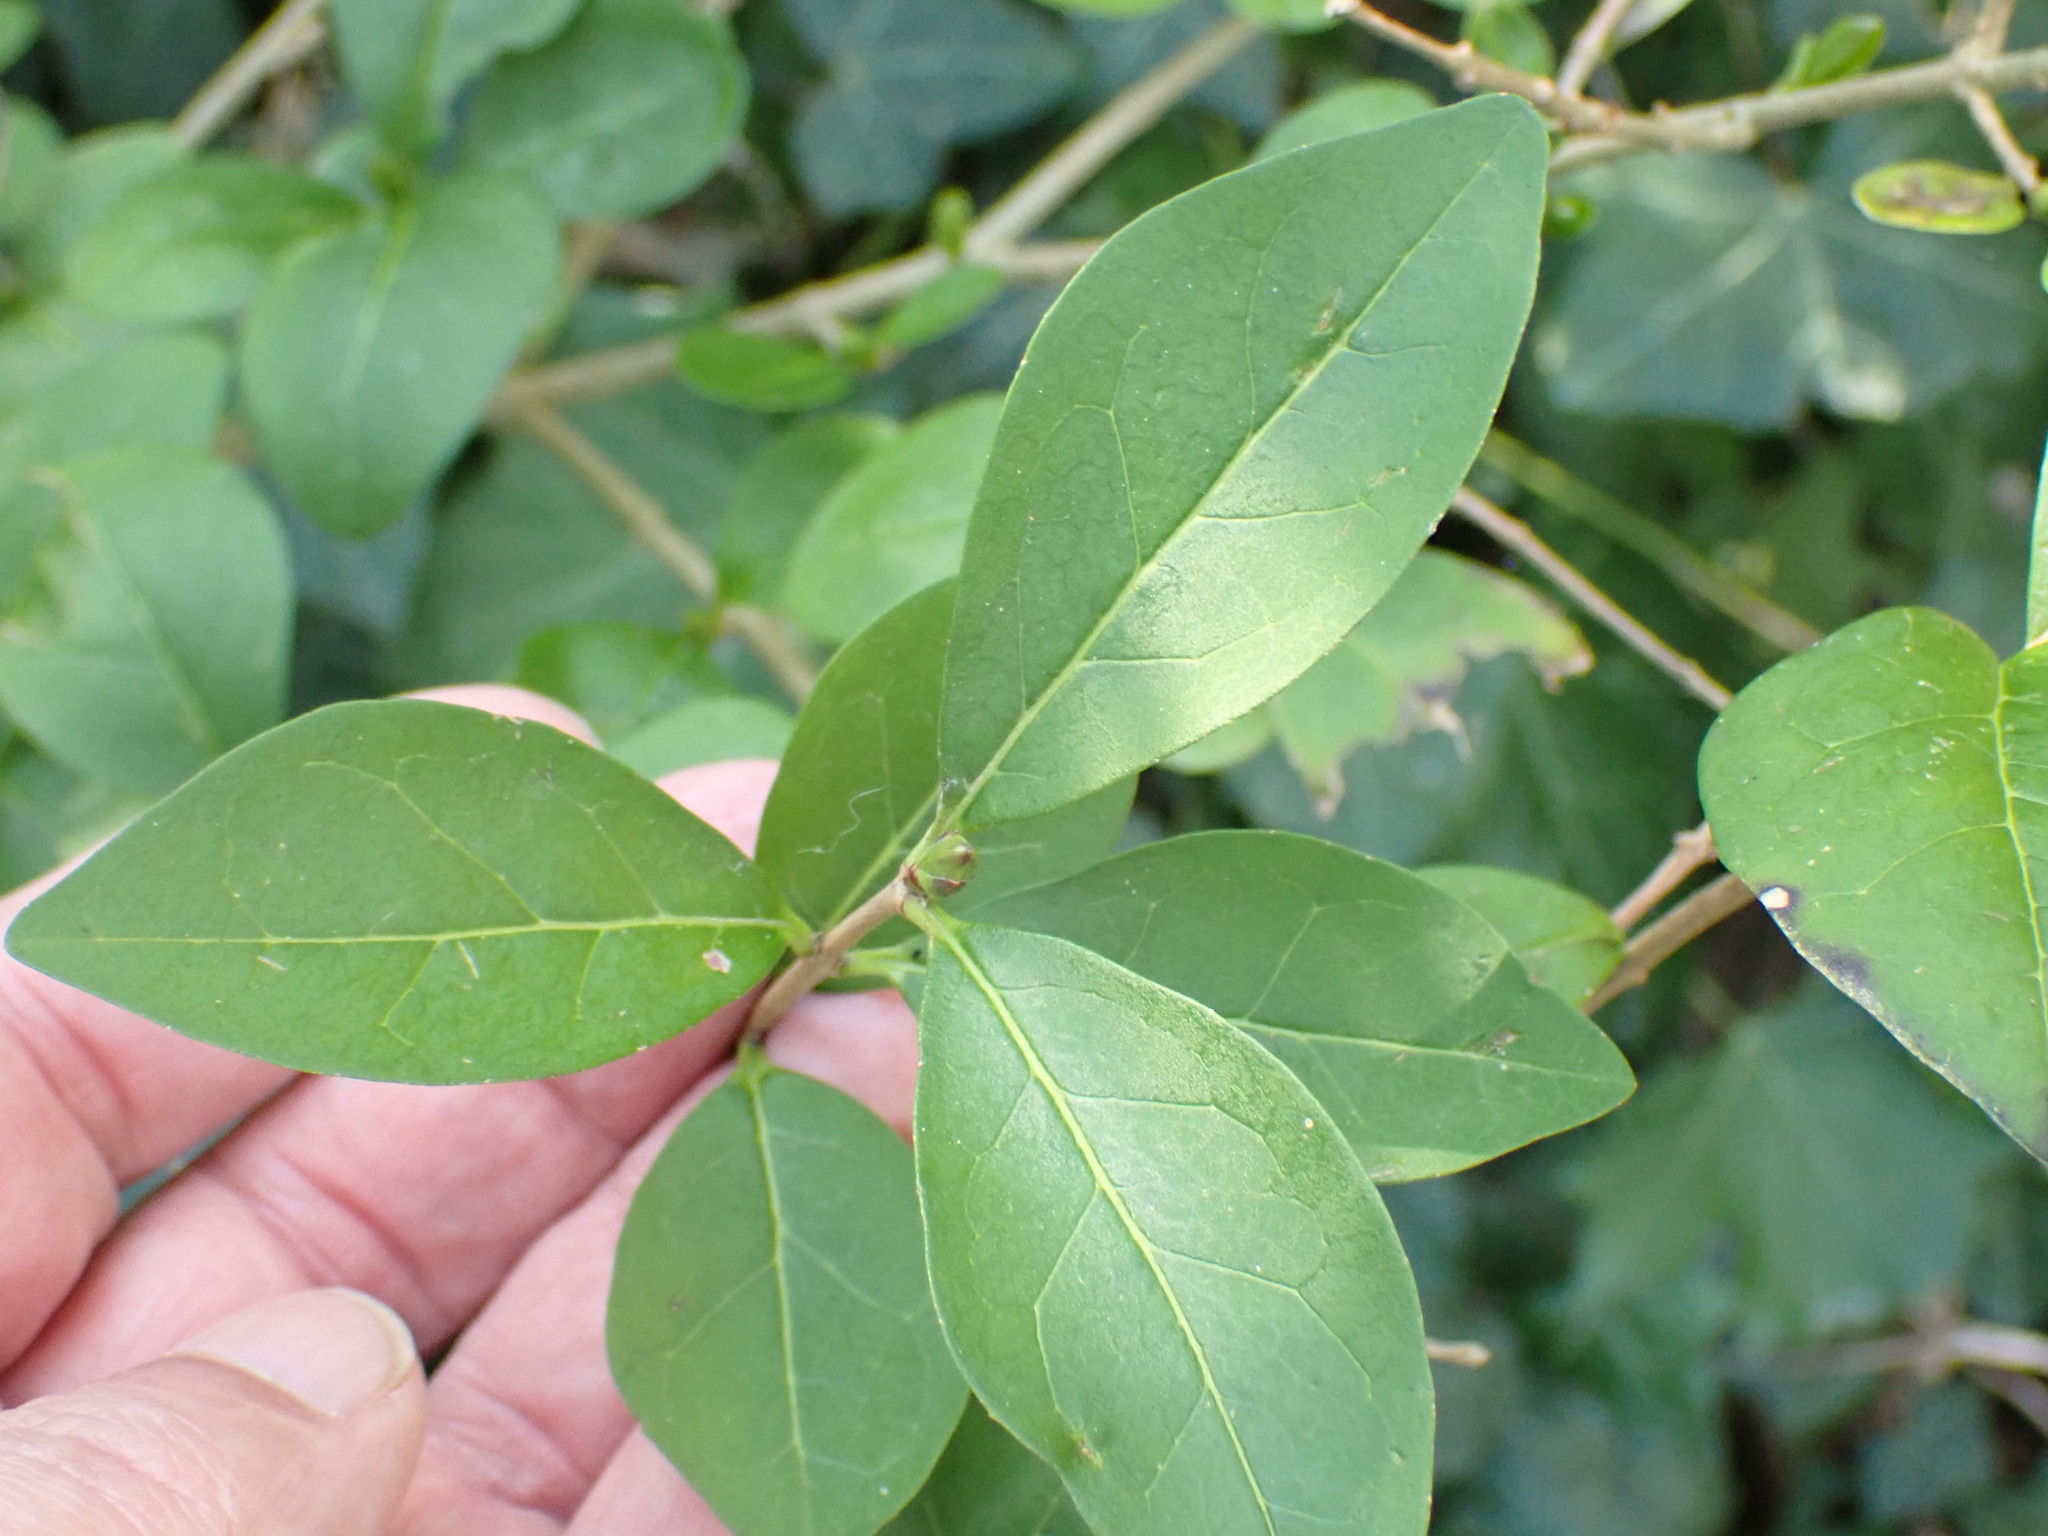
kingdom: Plantae
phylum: Tracheophyta
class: Magnoliopsida
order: Lamiales
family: Oleaceae
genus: Ligustrum
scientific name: Ligustrum ovalifolium
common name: California privet
